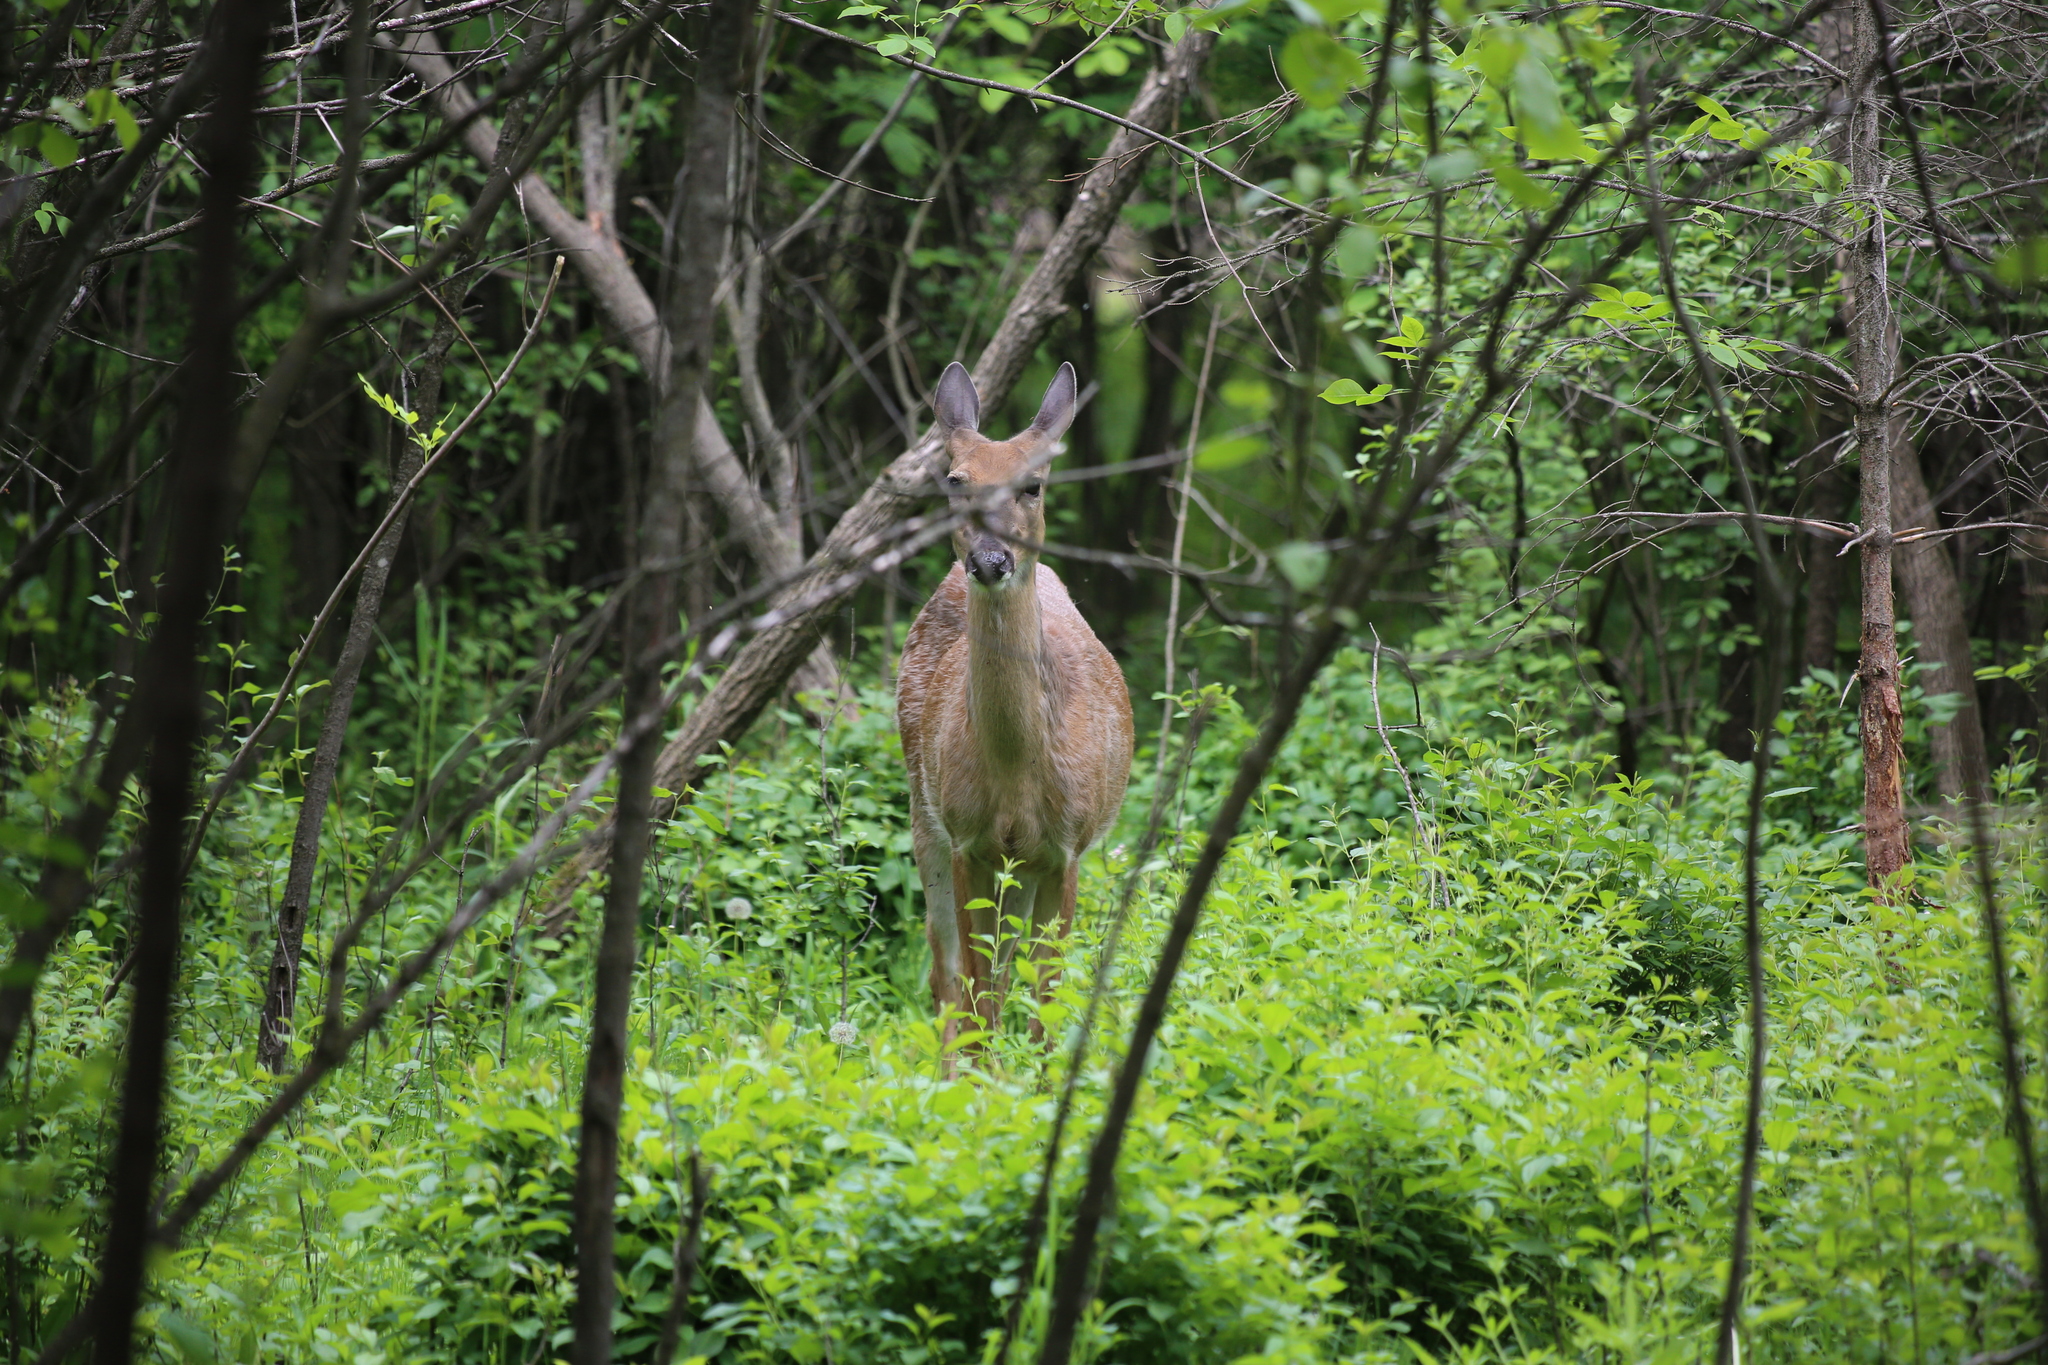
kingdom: Animalia
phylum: Chordata
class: Mammalia
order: Artiodactyla
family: Cervidae
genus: Odocoileus
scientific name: Odocoileus virginianus
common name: White-tailed deer
